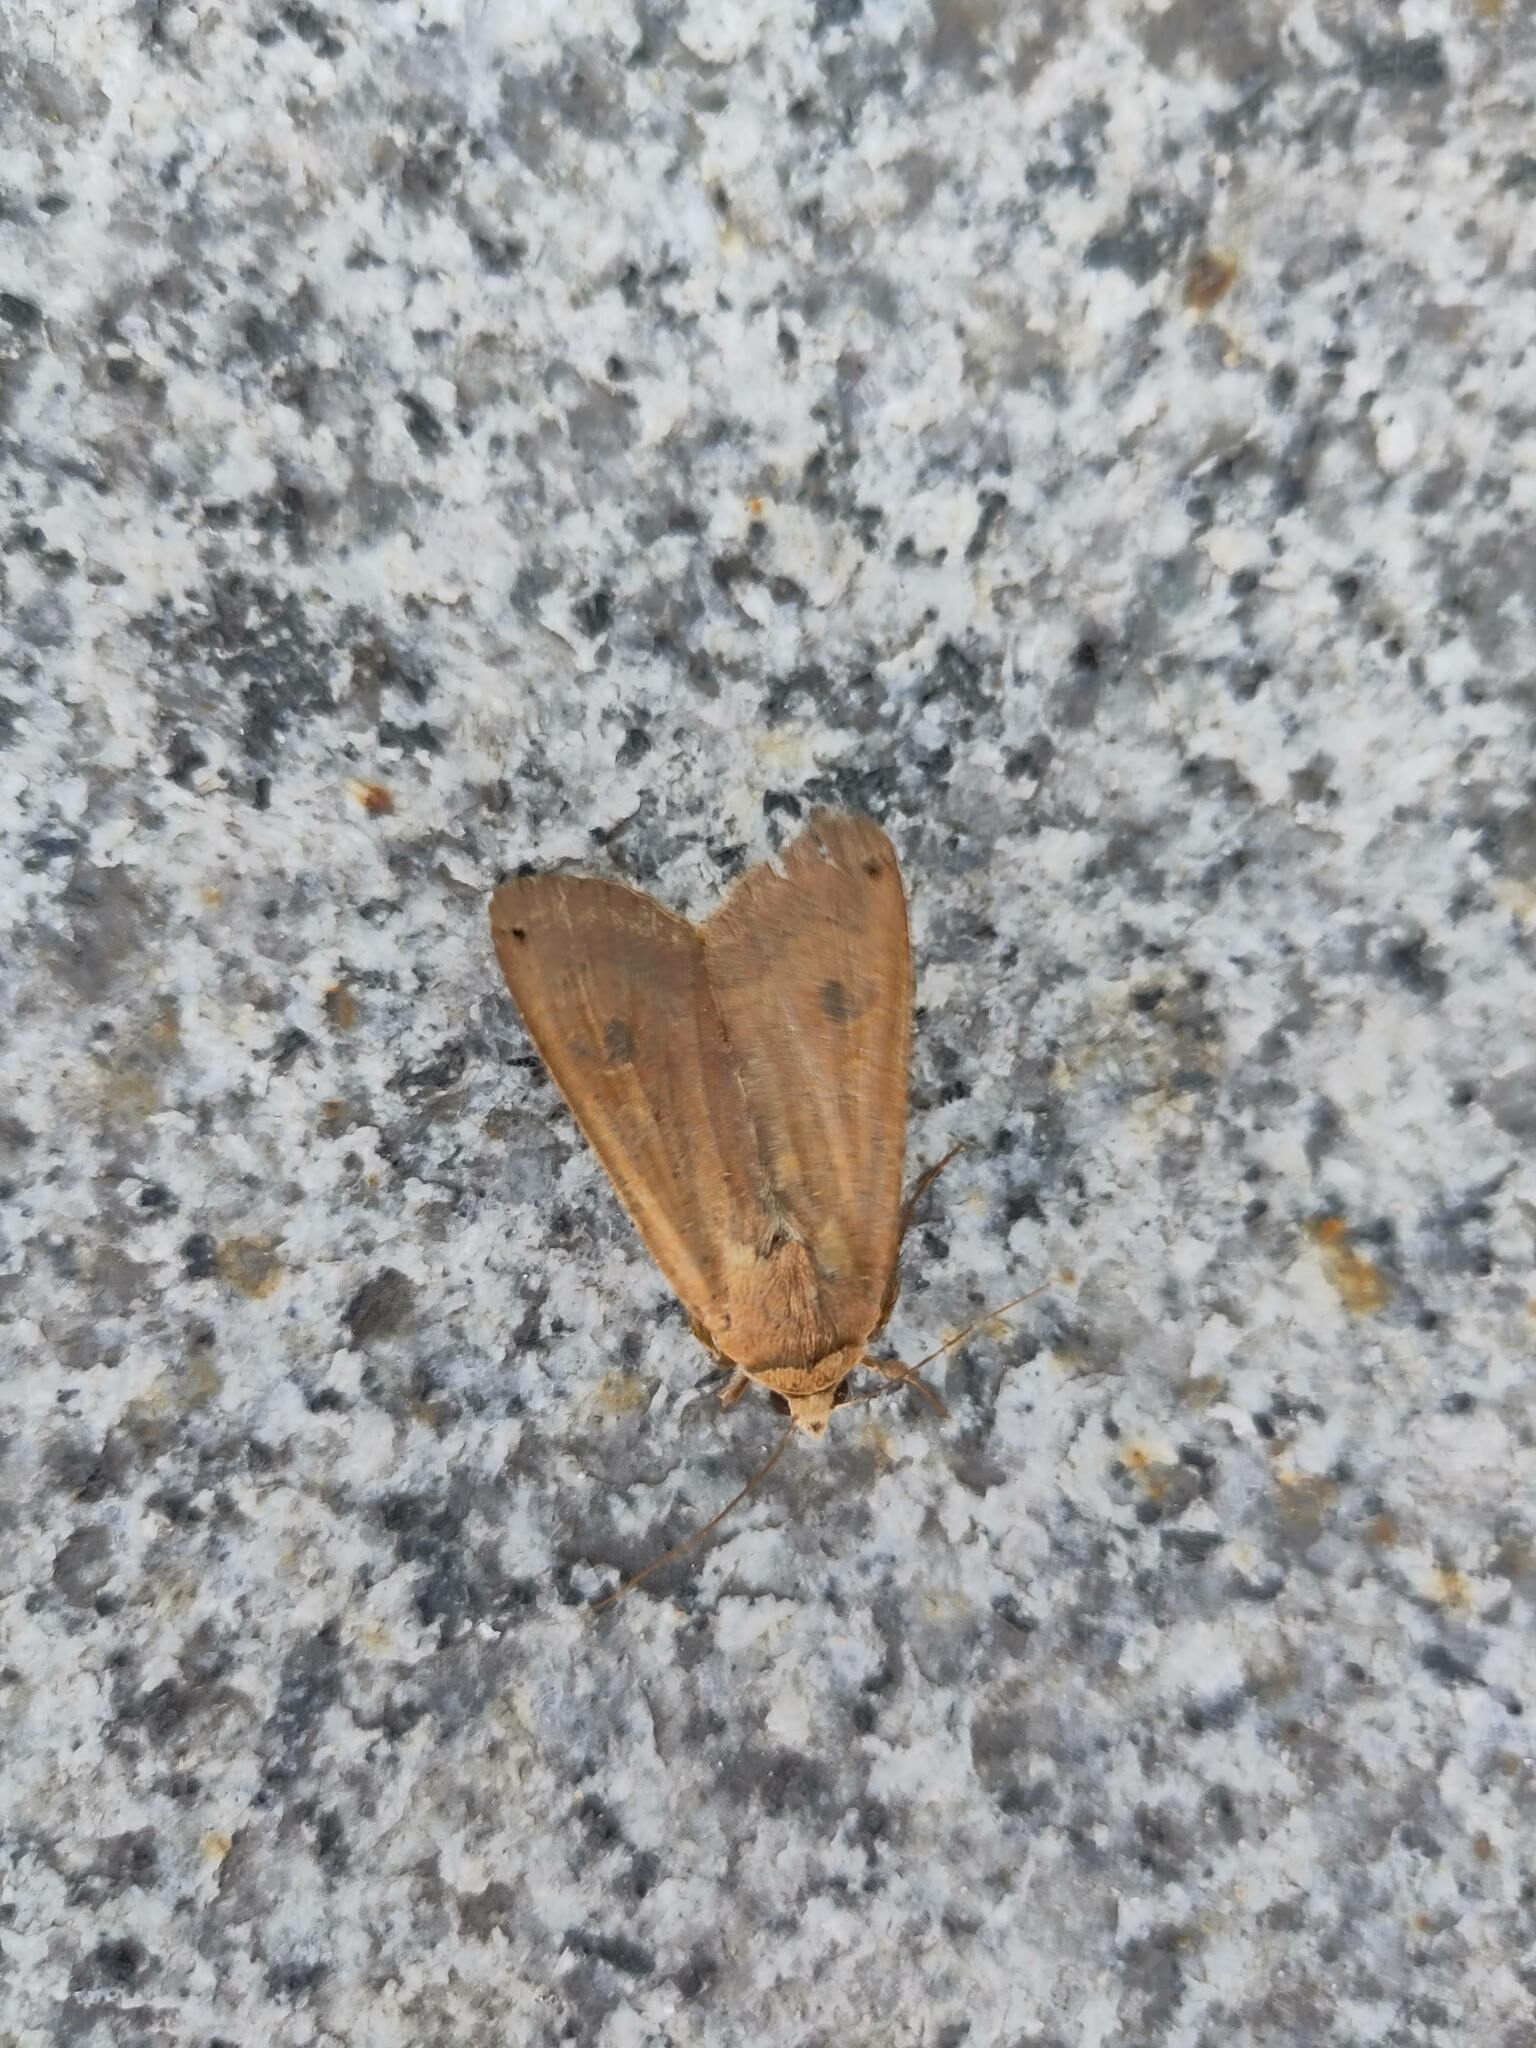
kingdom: Animalia
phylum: Arthropoda
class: Insecta
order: Lepidoptera
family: Noctuidae
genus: Noctua
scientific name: Noctua pronuba
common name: Large yellow underwing
